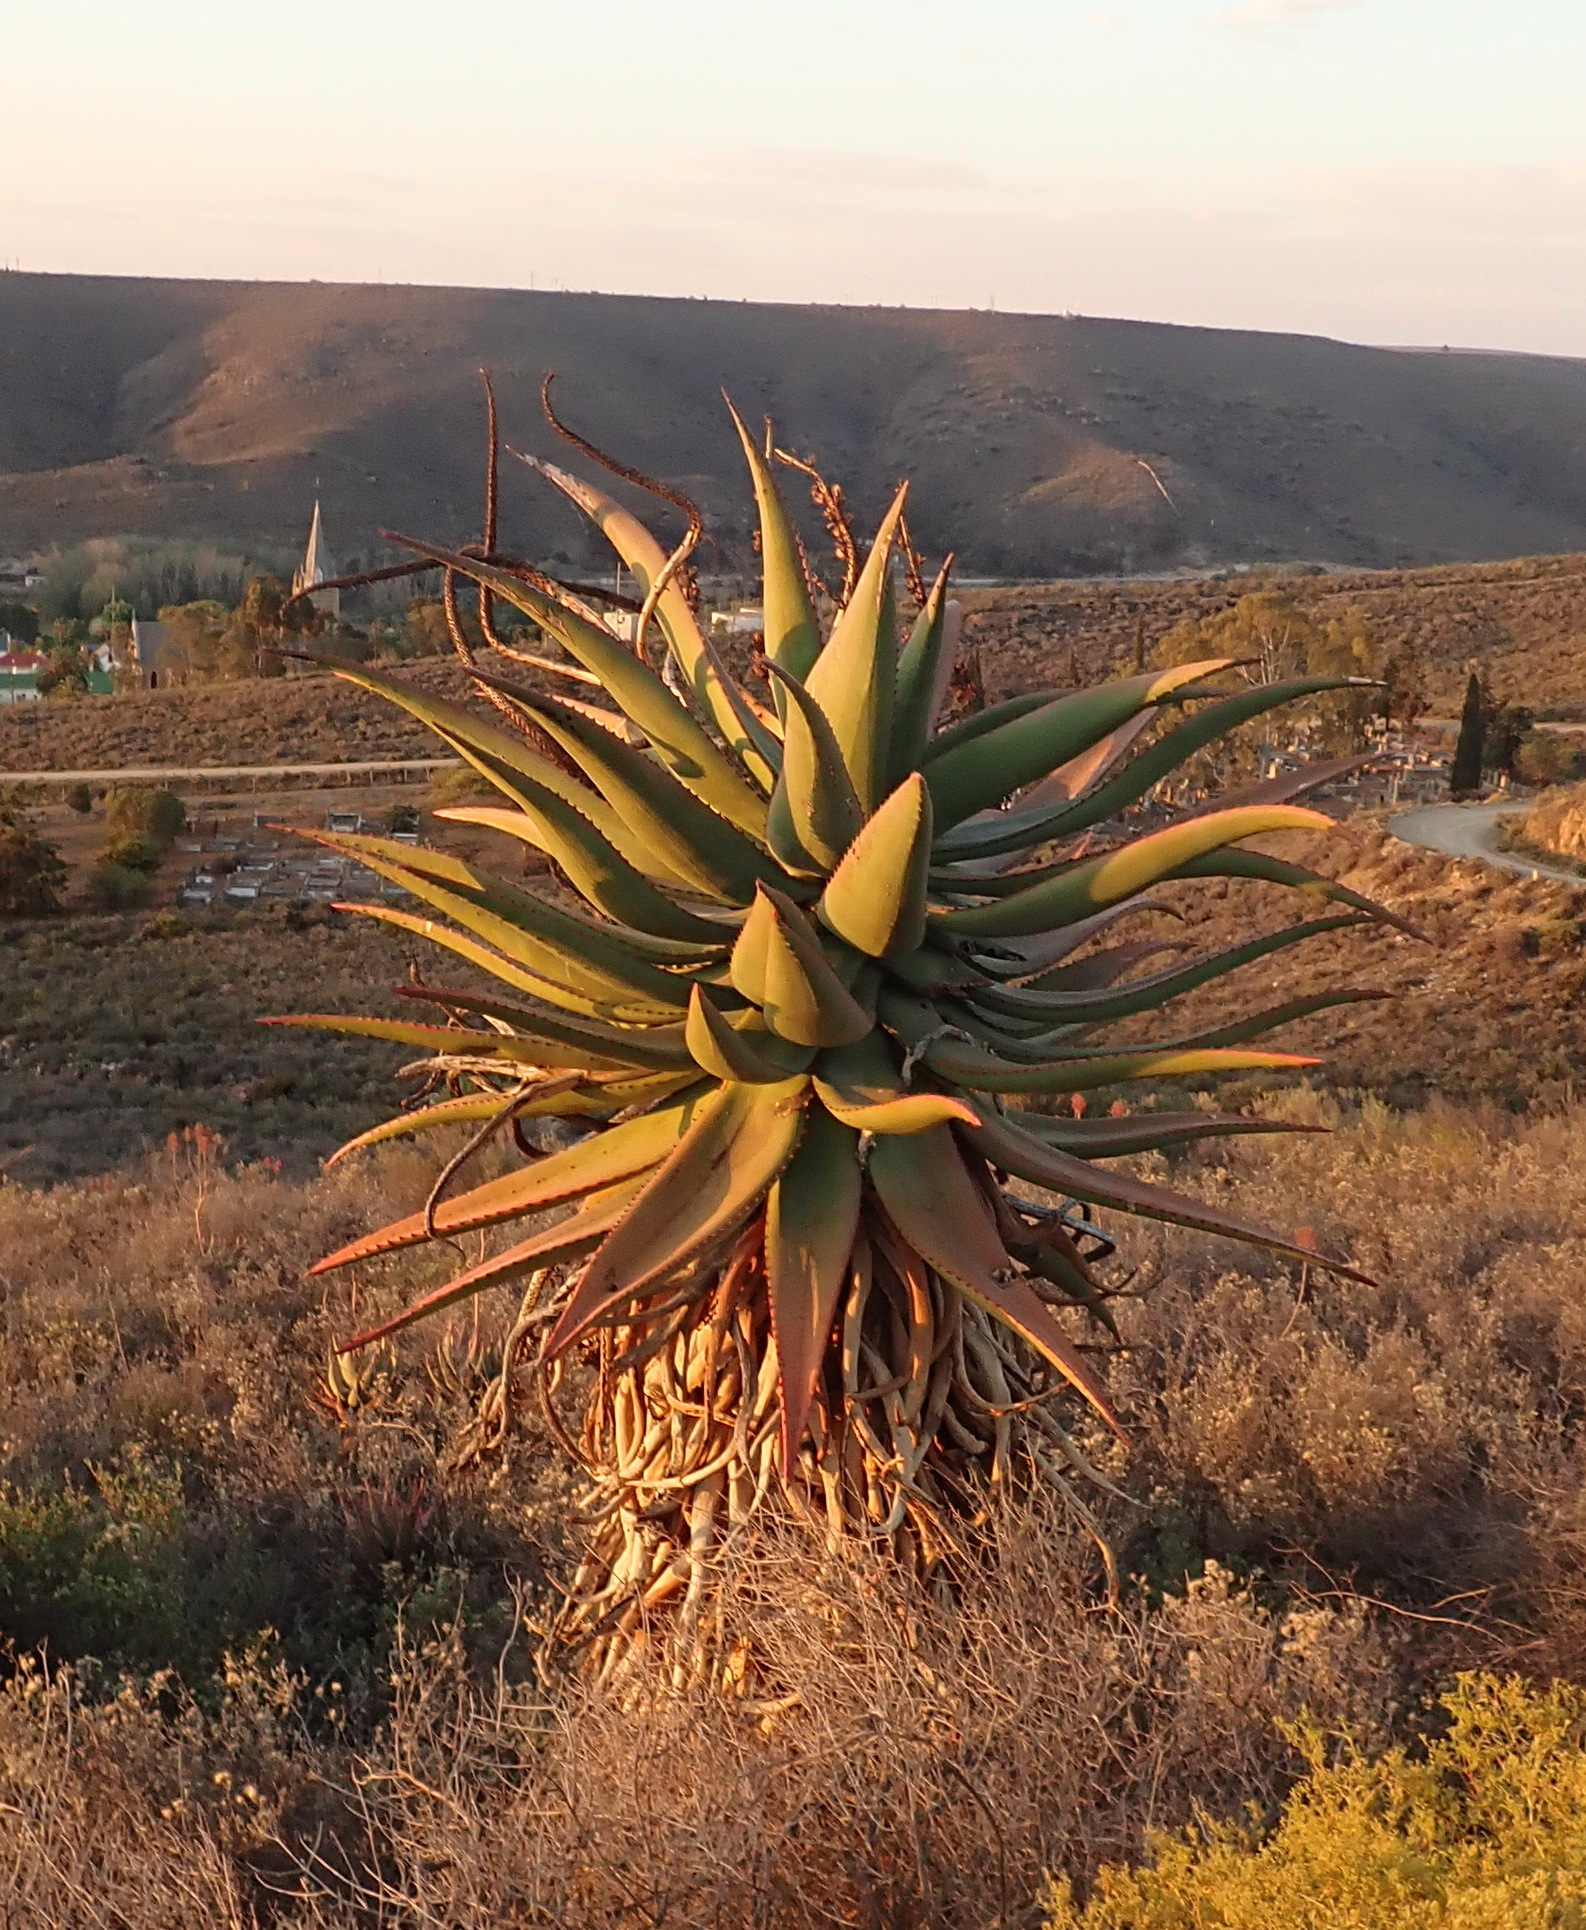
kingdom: Plantae
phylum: Tracheophyta
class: Liliopsida
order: Asparagales
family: Asphodelaceae
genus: Aloe
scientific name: Aloe ferox
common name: Bitter aloe
